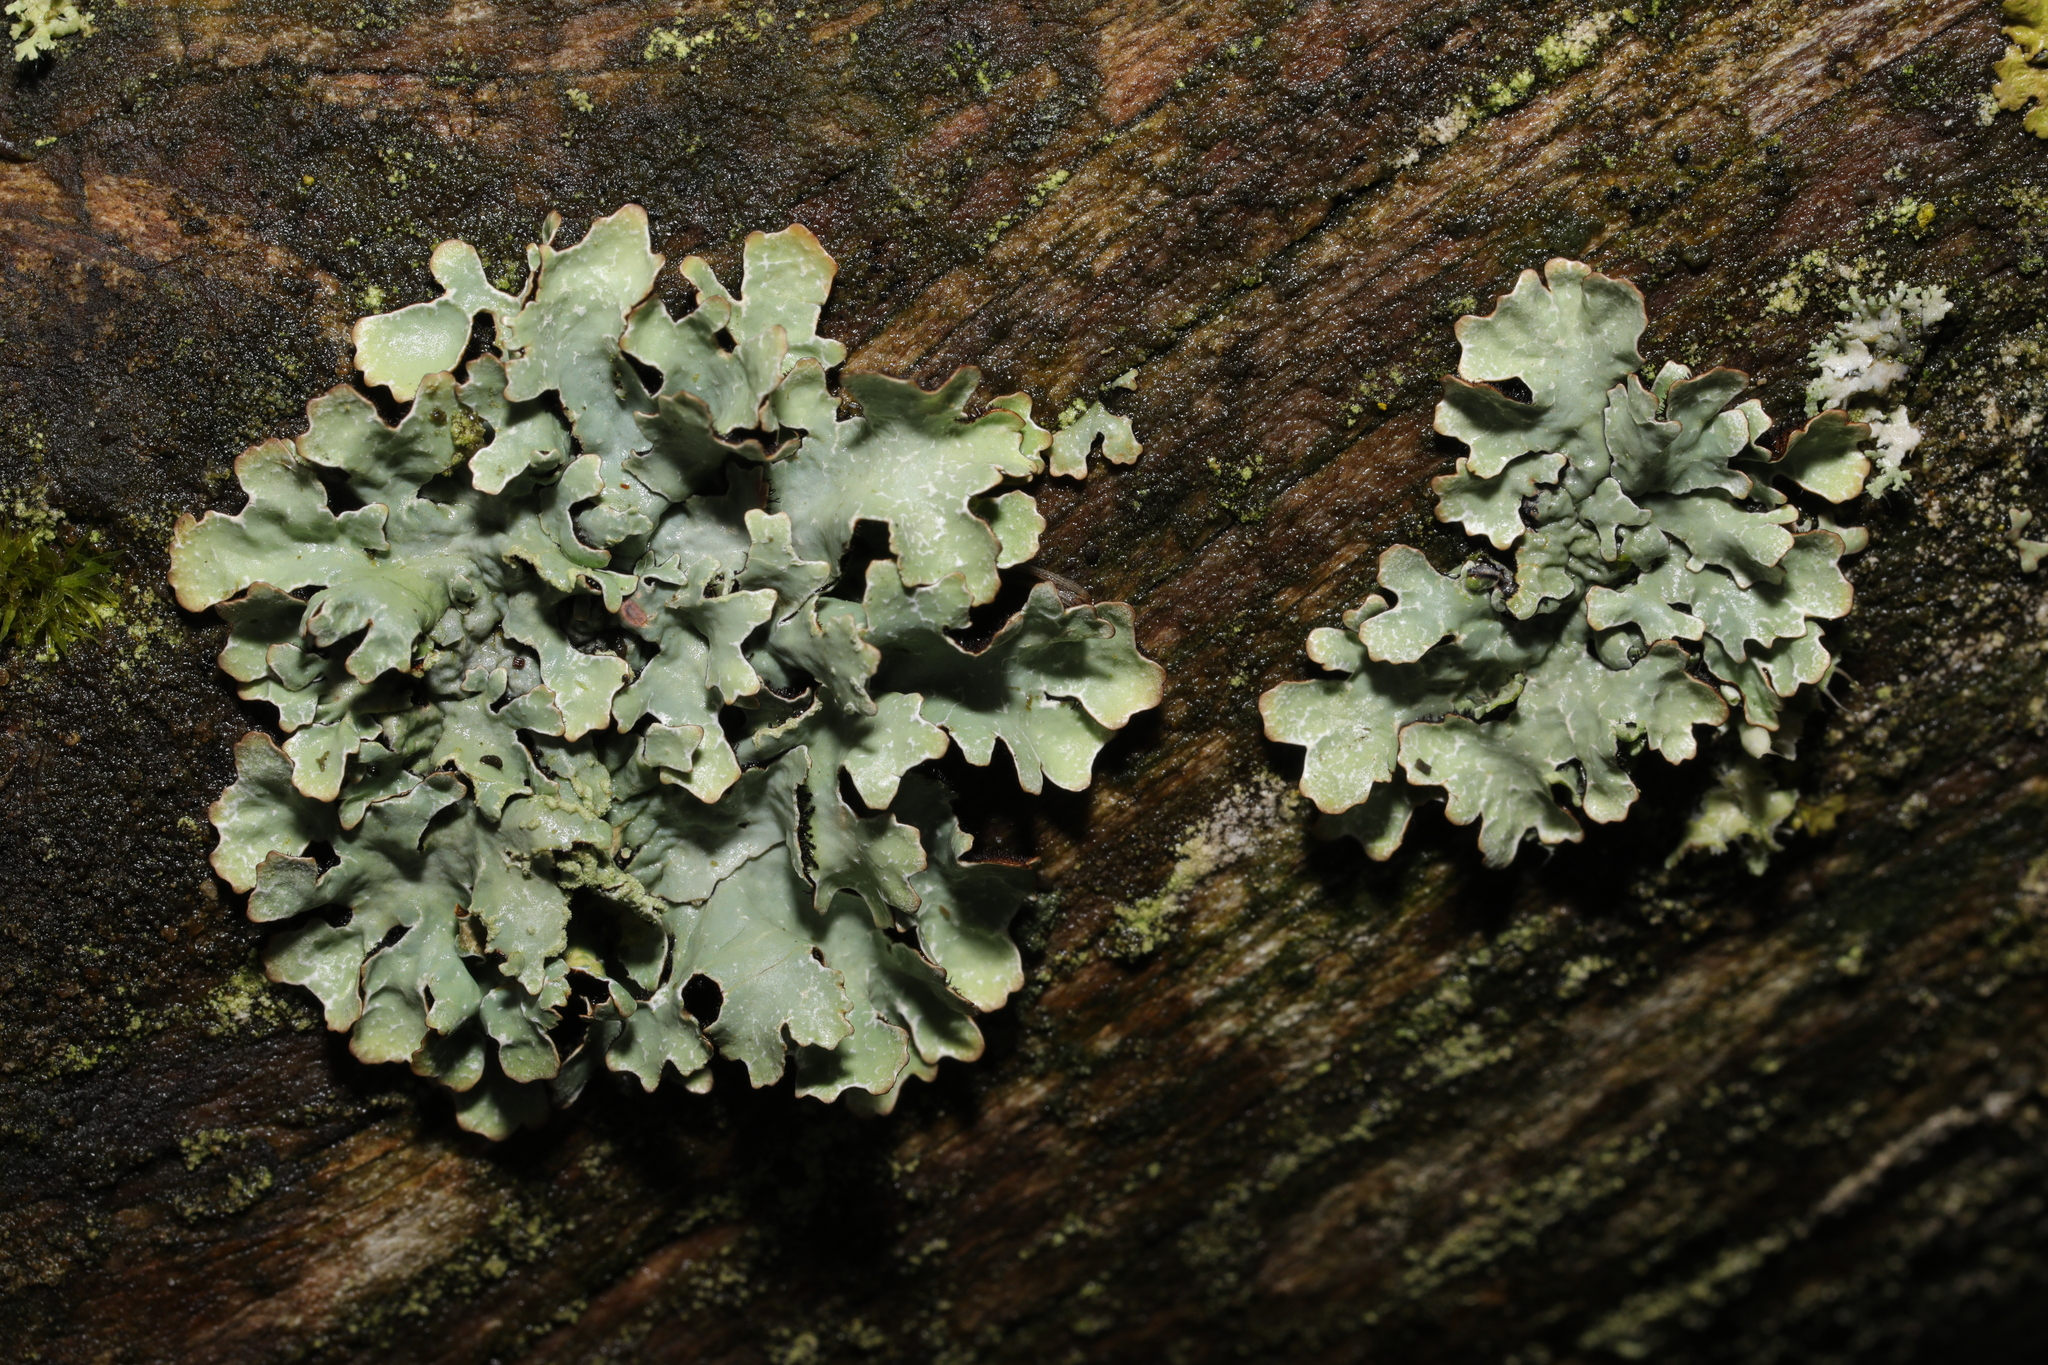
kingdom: Fungi
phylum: Ascomycota
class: Lecanoromycetes
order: Lecanorales
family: Parmeliaceae
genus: Parmelia
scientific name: Parmelia sulcata
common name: Netted shield lichen
